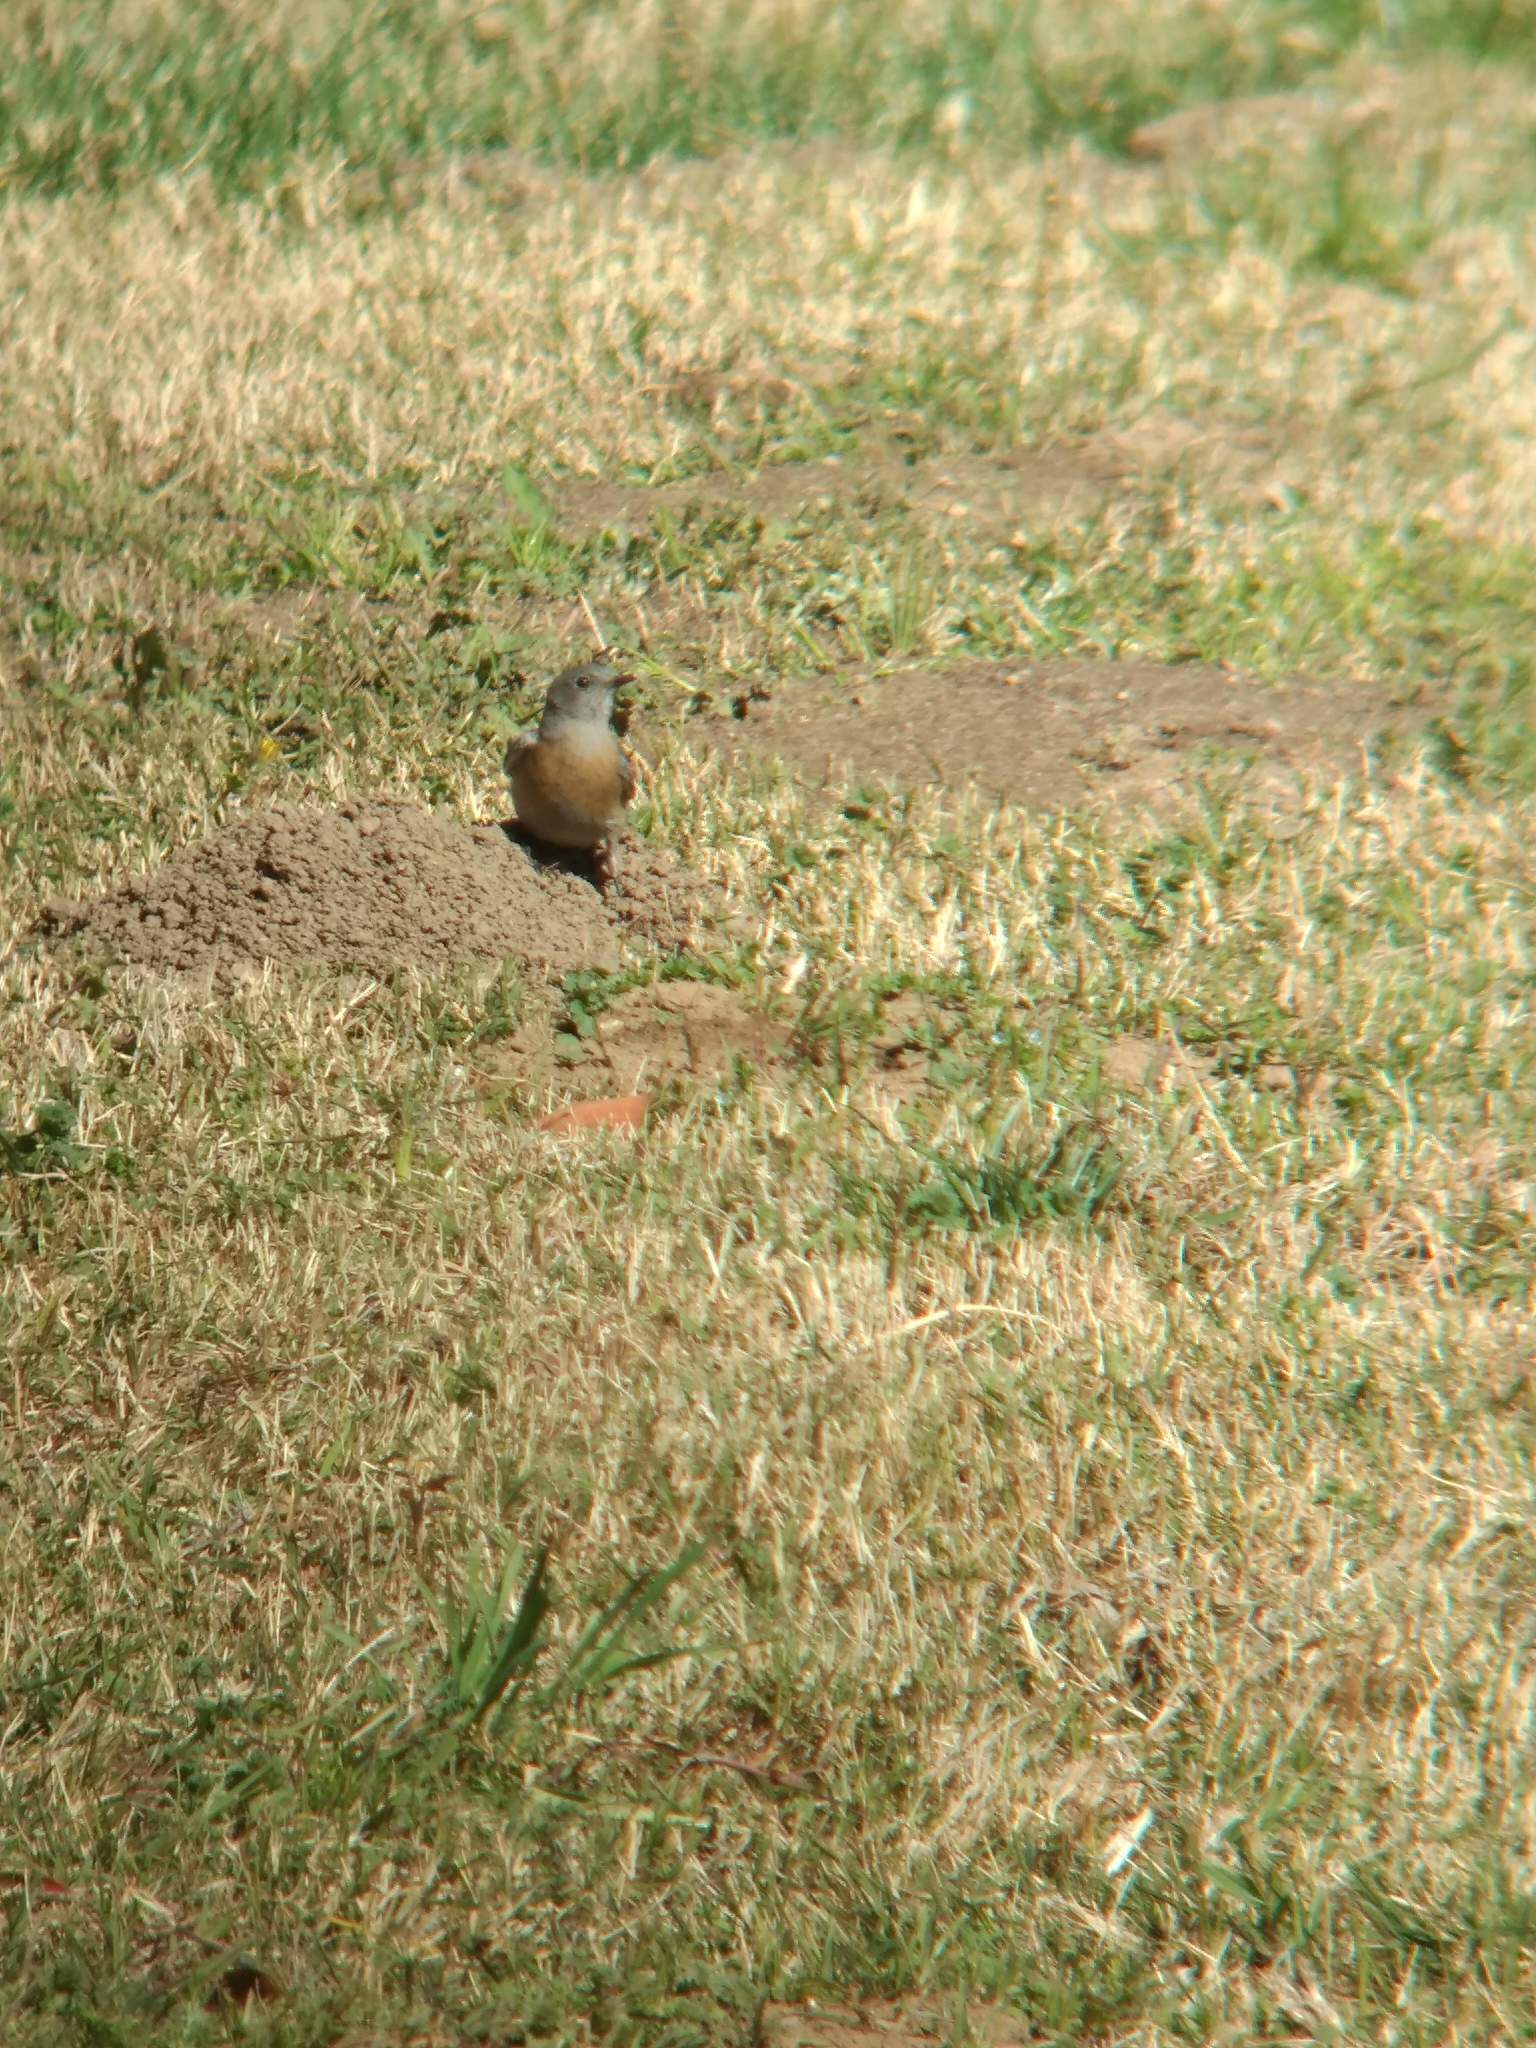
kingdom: Animalia
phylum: Chordata
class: Aves
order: Passeriformes
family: Turdidae
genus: Sialia
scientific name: Sialia mexicana
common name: Western bluebird
